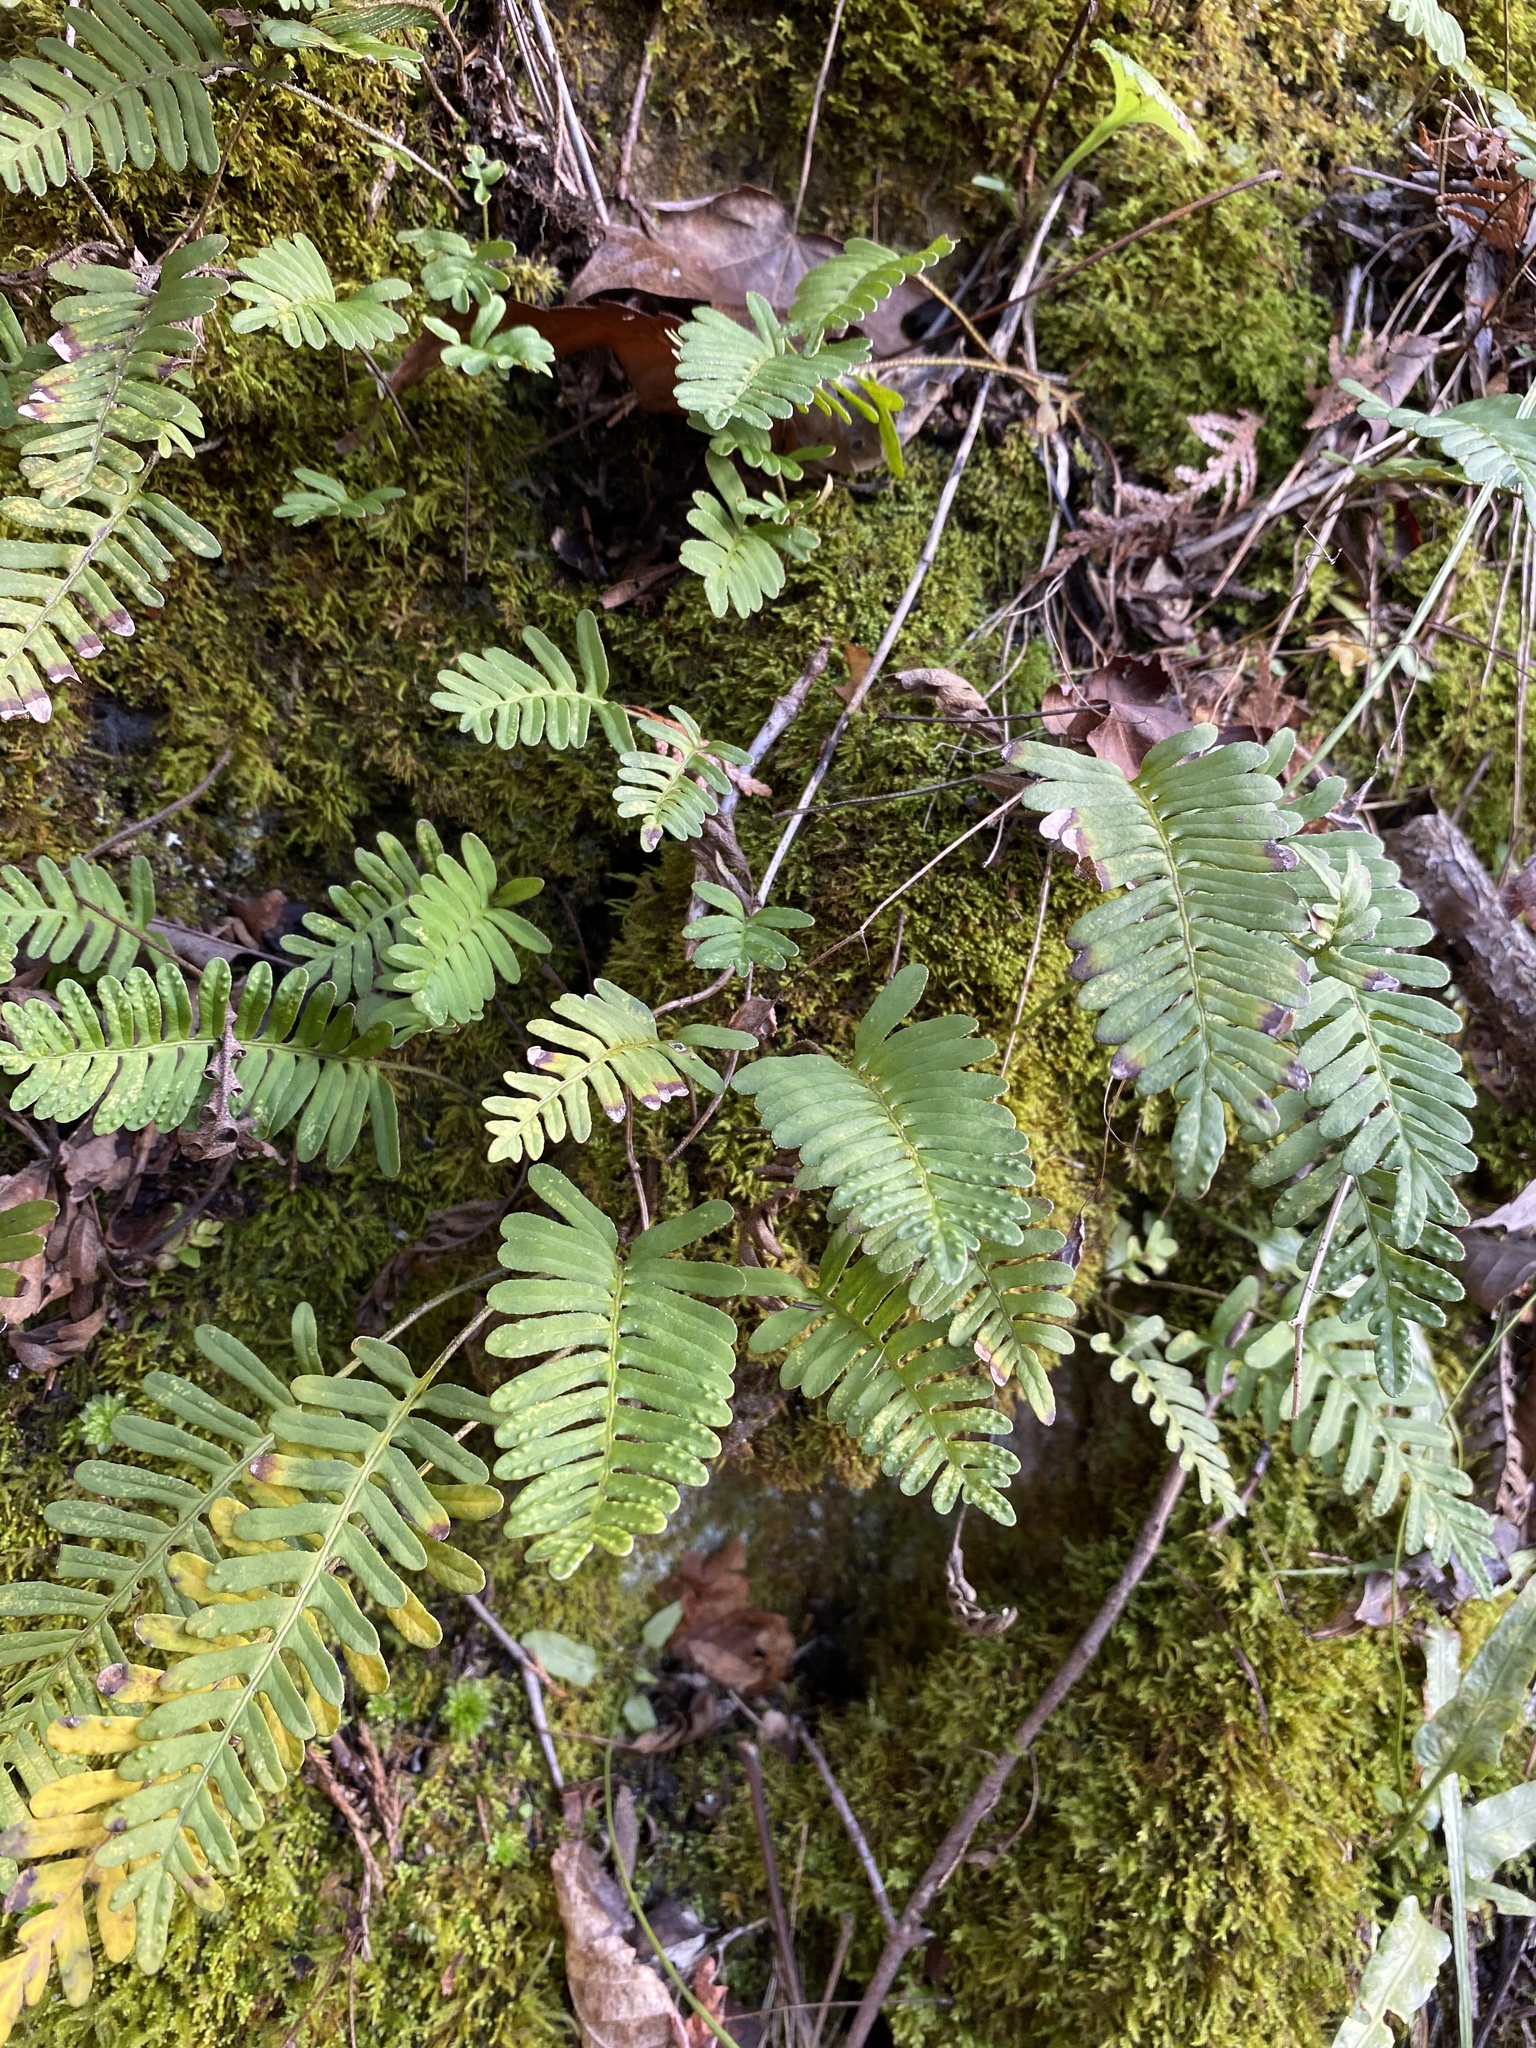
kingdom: Plantae
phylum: Tracheophyta
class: Polypodiopsida
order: Polypodiales
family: Polypodiaceae
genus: Pleopeltis
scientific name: Pleopeltis michauxiana
